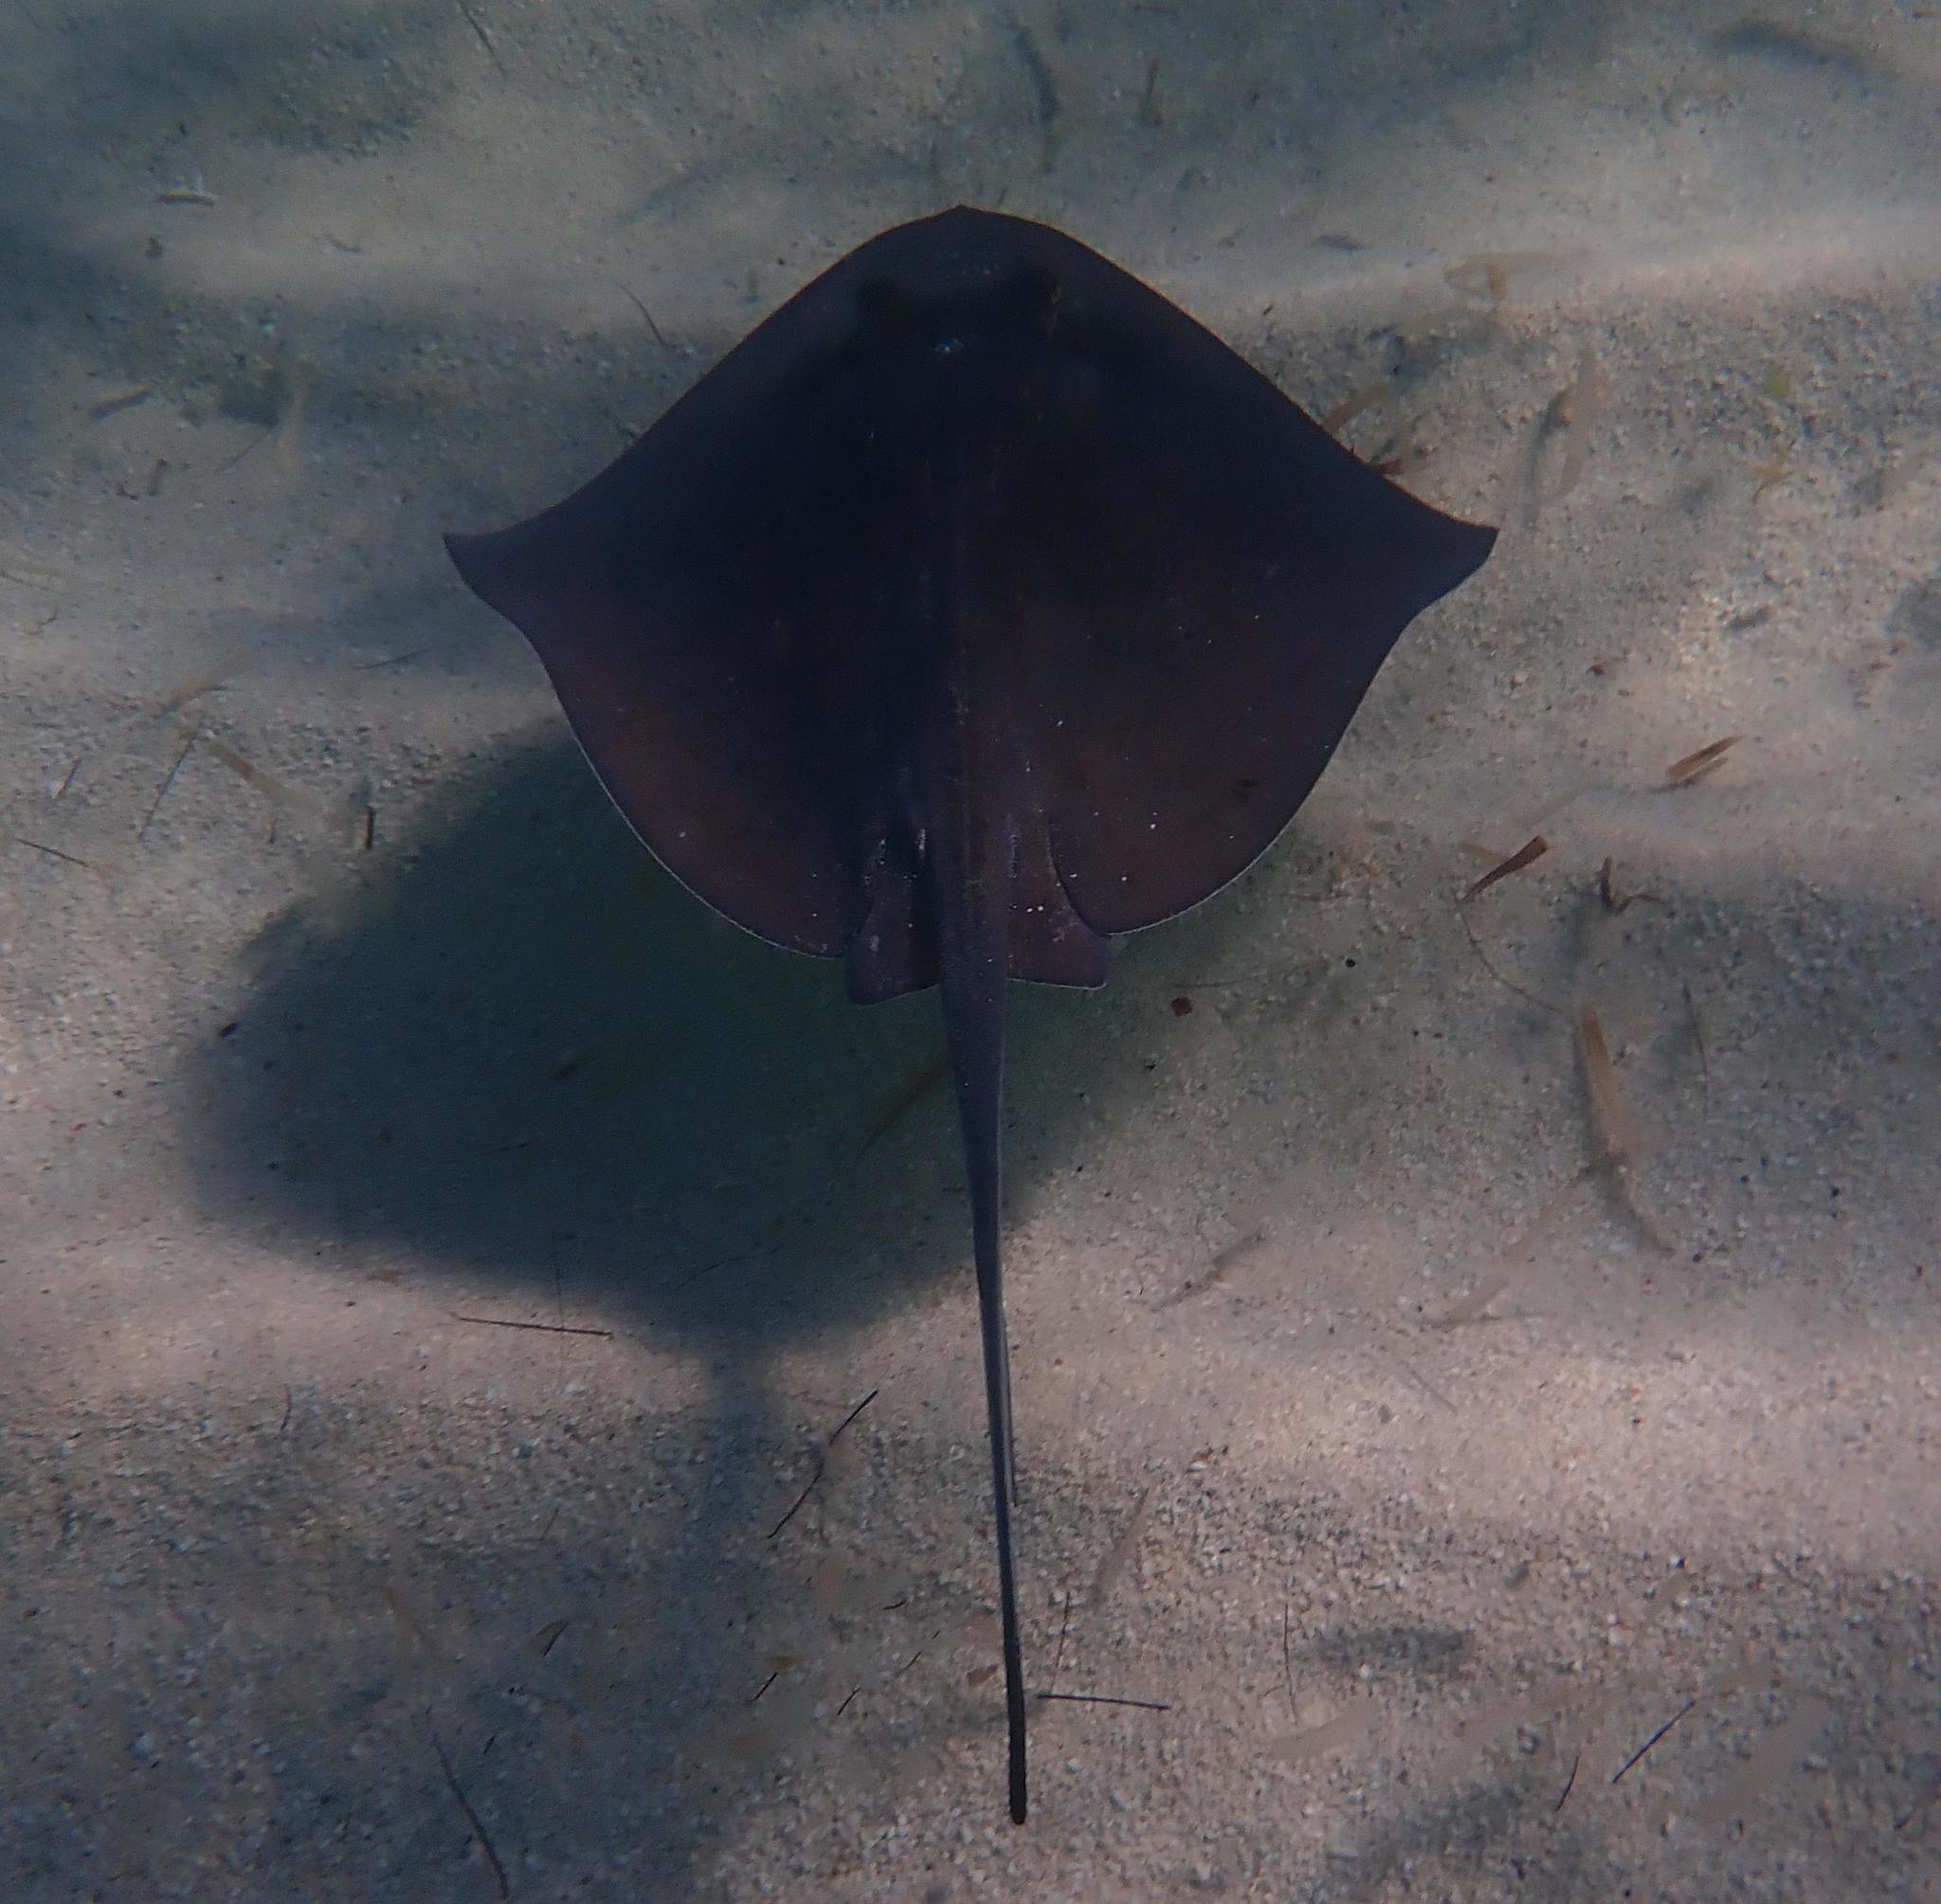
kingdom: Animalia
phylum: Chordata
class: Elasmobranchii
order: Myliobatiformes
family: Dasyatidae
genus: Hypanus
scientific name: Hypanus americanus
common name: Southern stingray
